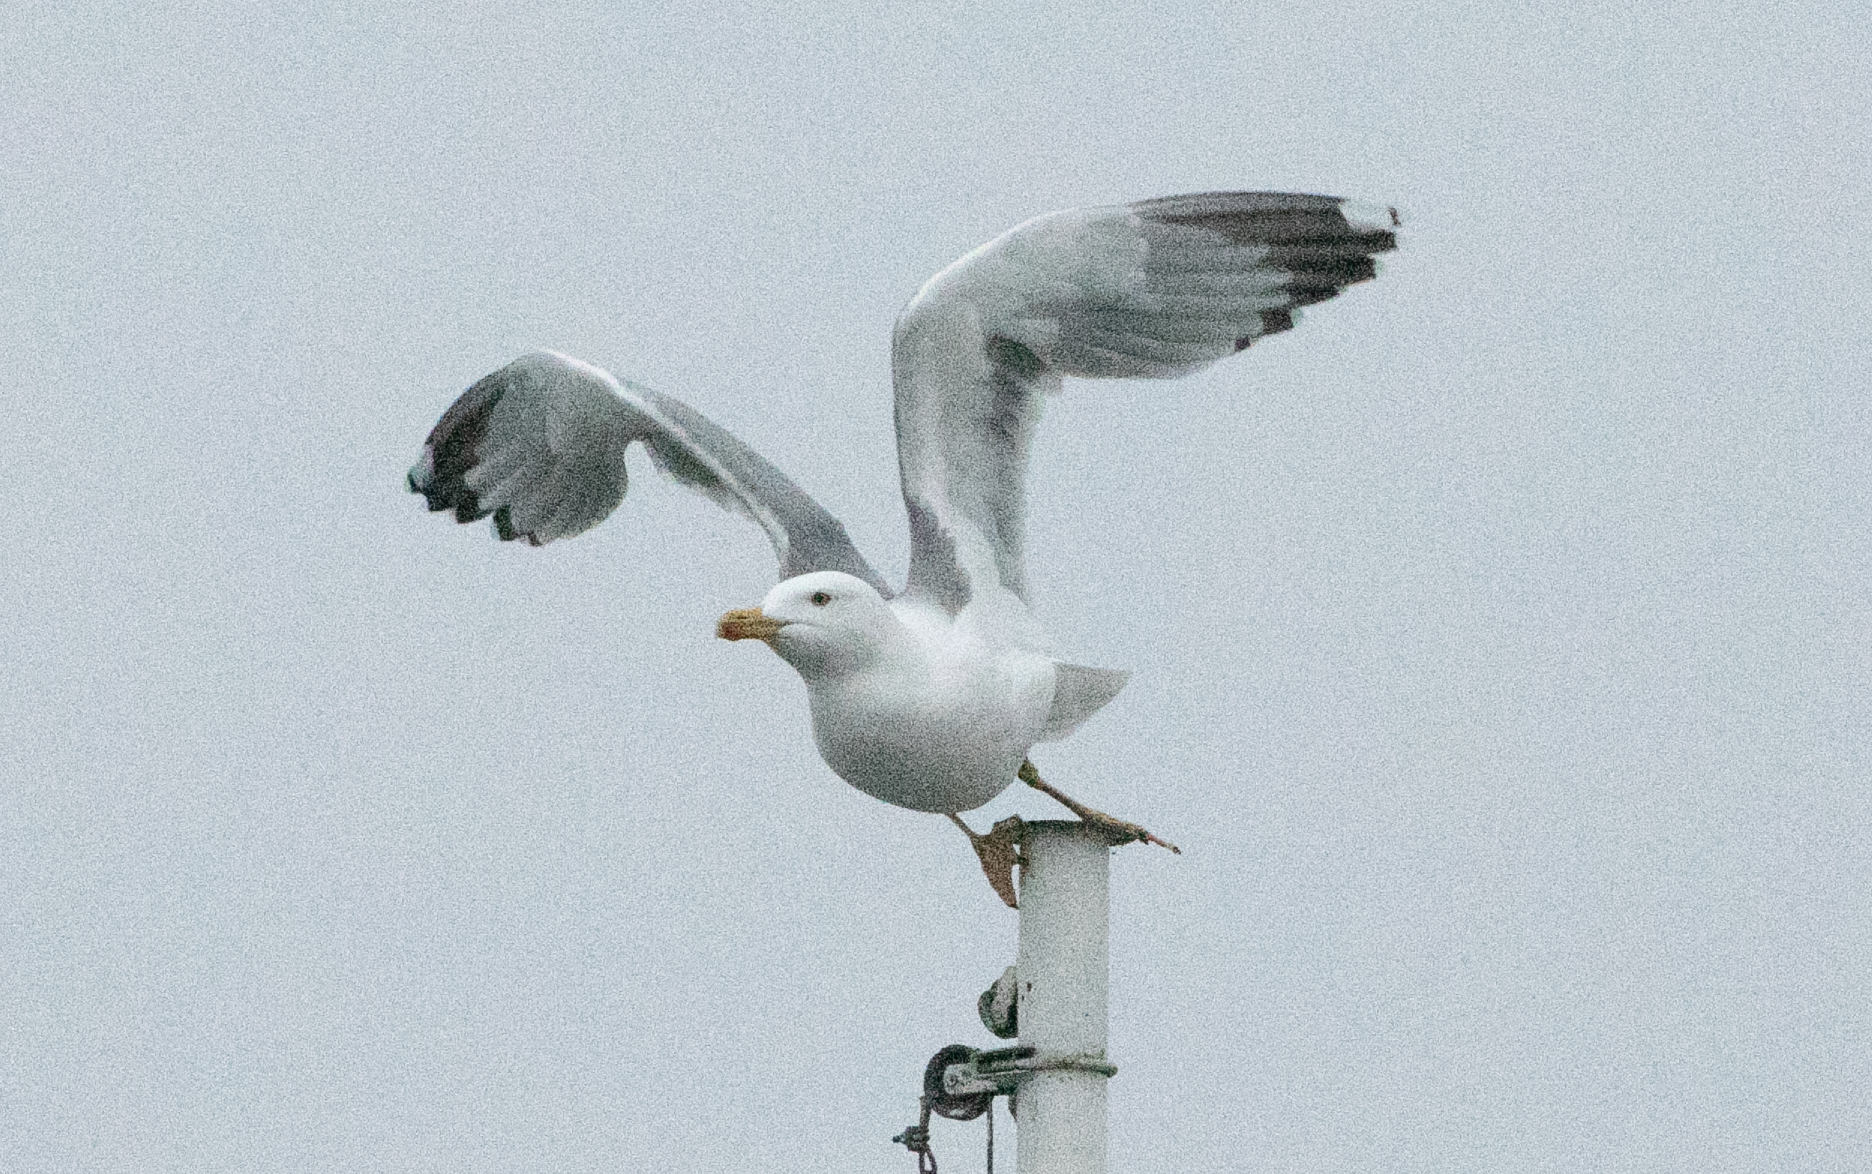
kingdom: Animalia
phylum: Chordata
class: Aves
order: Charadriiformes
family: Laridae
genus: Larus
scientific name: Larus michahellis
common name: Yellow-legged gull
